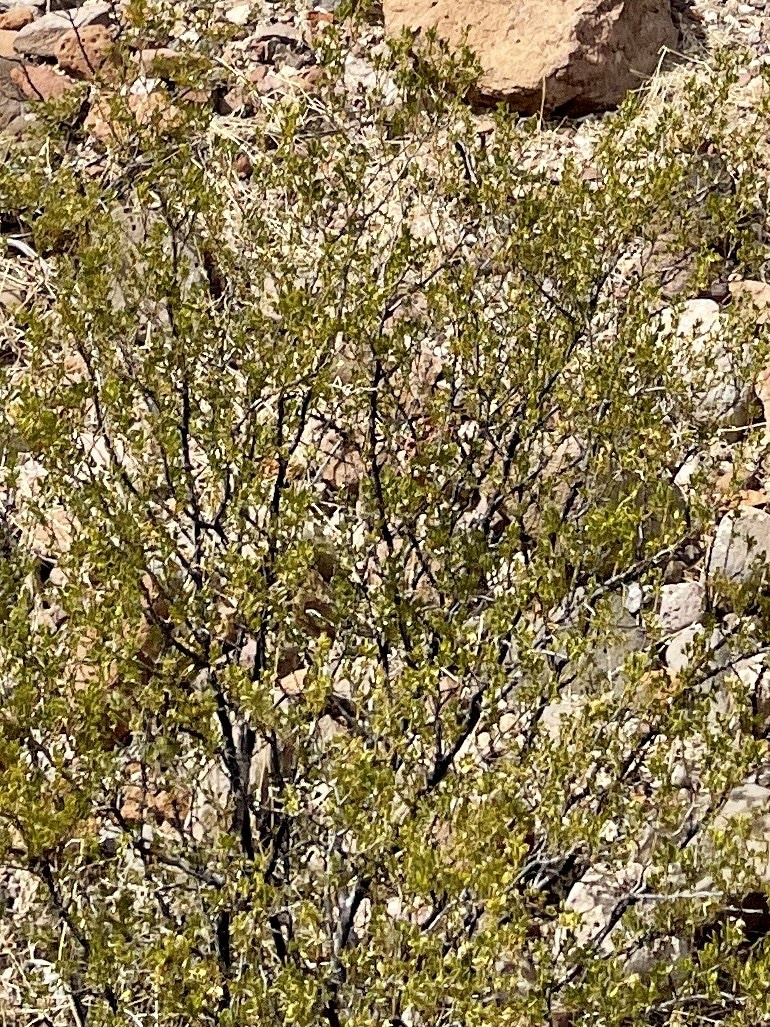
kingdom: Plantae
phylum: Tracheophyta
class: Magnoliopsida
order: Zygophyllales
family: Zygophyllaceae
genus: Larrea
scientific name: Larrea tridentata
